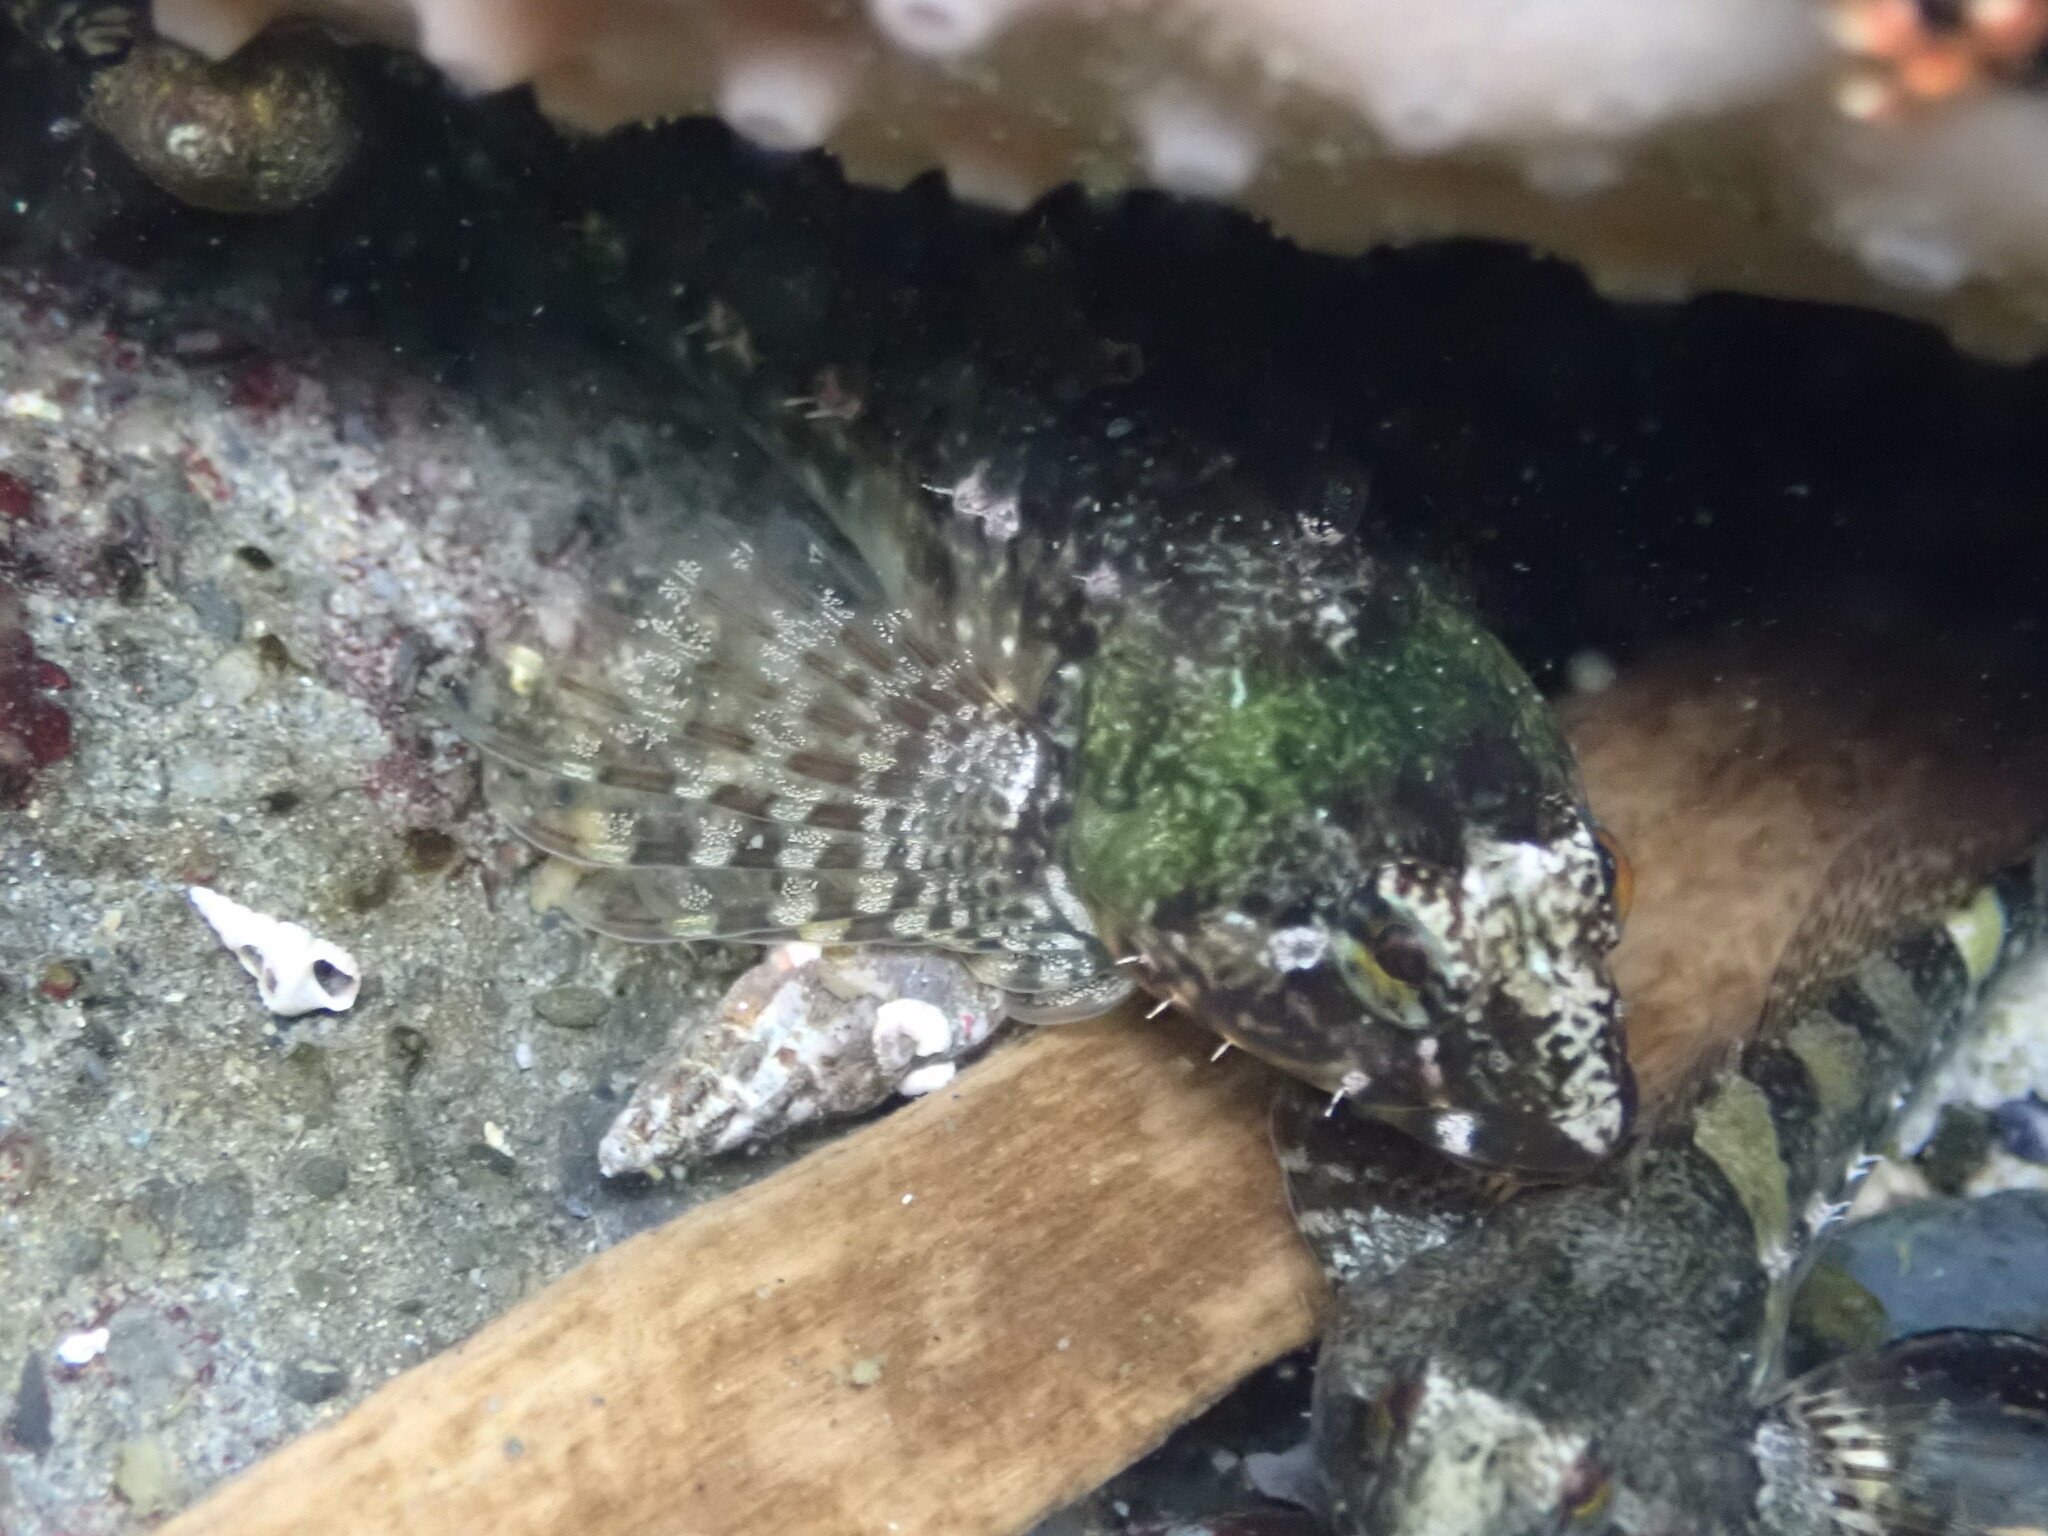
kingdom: Animalia
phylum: Chordata
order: Scorpaeniformes
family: Cottidae
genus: Oligocottus
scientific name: Oligocottus maculosus
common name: Tidepool sculpin
